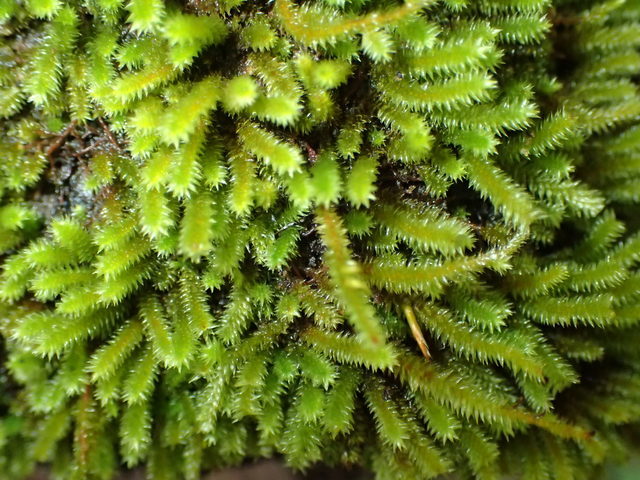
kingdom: Plantae
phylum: Bryophyta
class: Bryopsida
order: Hypnales
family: Cryphaeaceae
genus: Cryphaea
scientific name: Cryphaea glomerata
